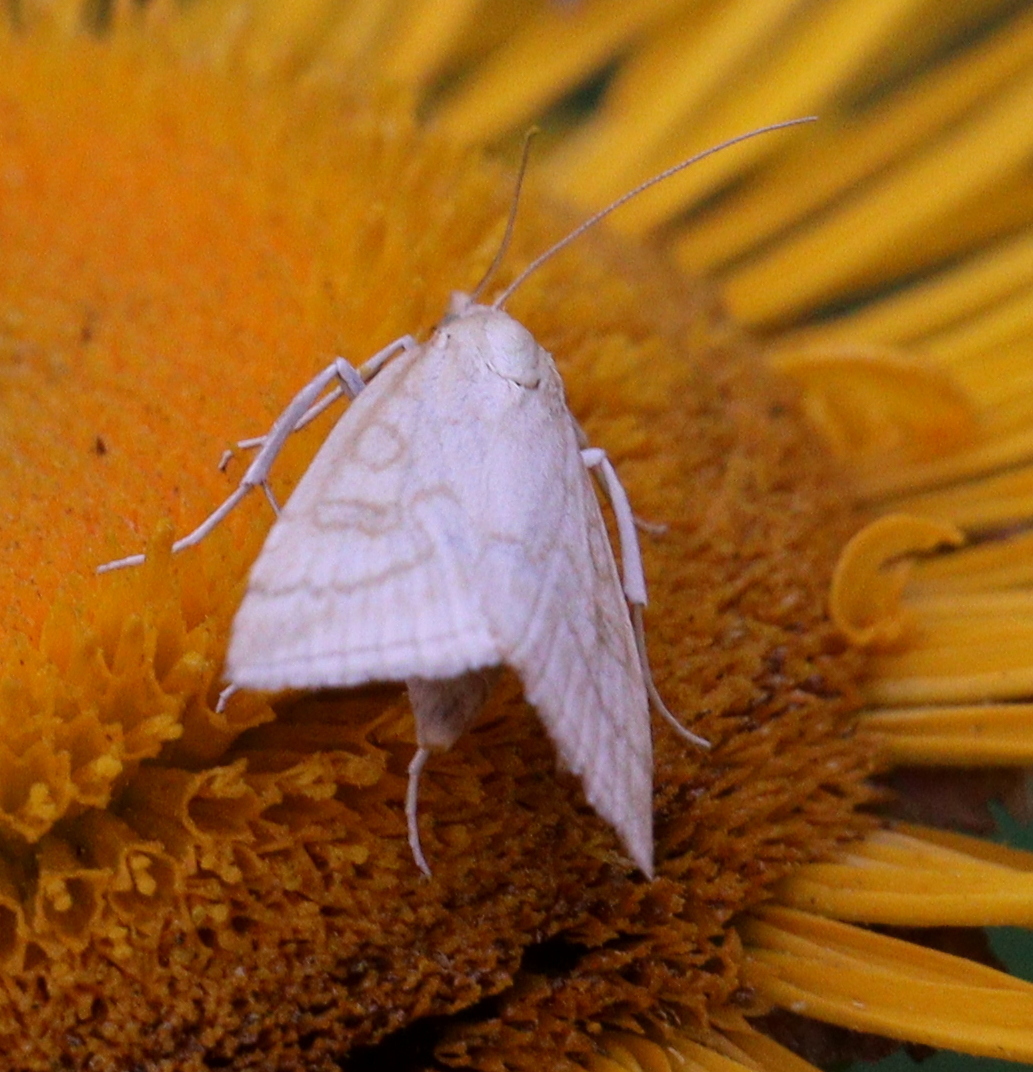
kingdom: Animalia
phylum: Arthropoda
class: Insecta
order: Lepidoptera
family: Crambidae
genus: Udea
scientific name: Udea lutealis
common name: Pale straw pearl
